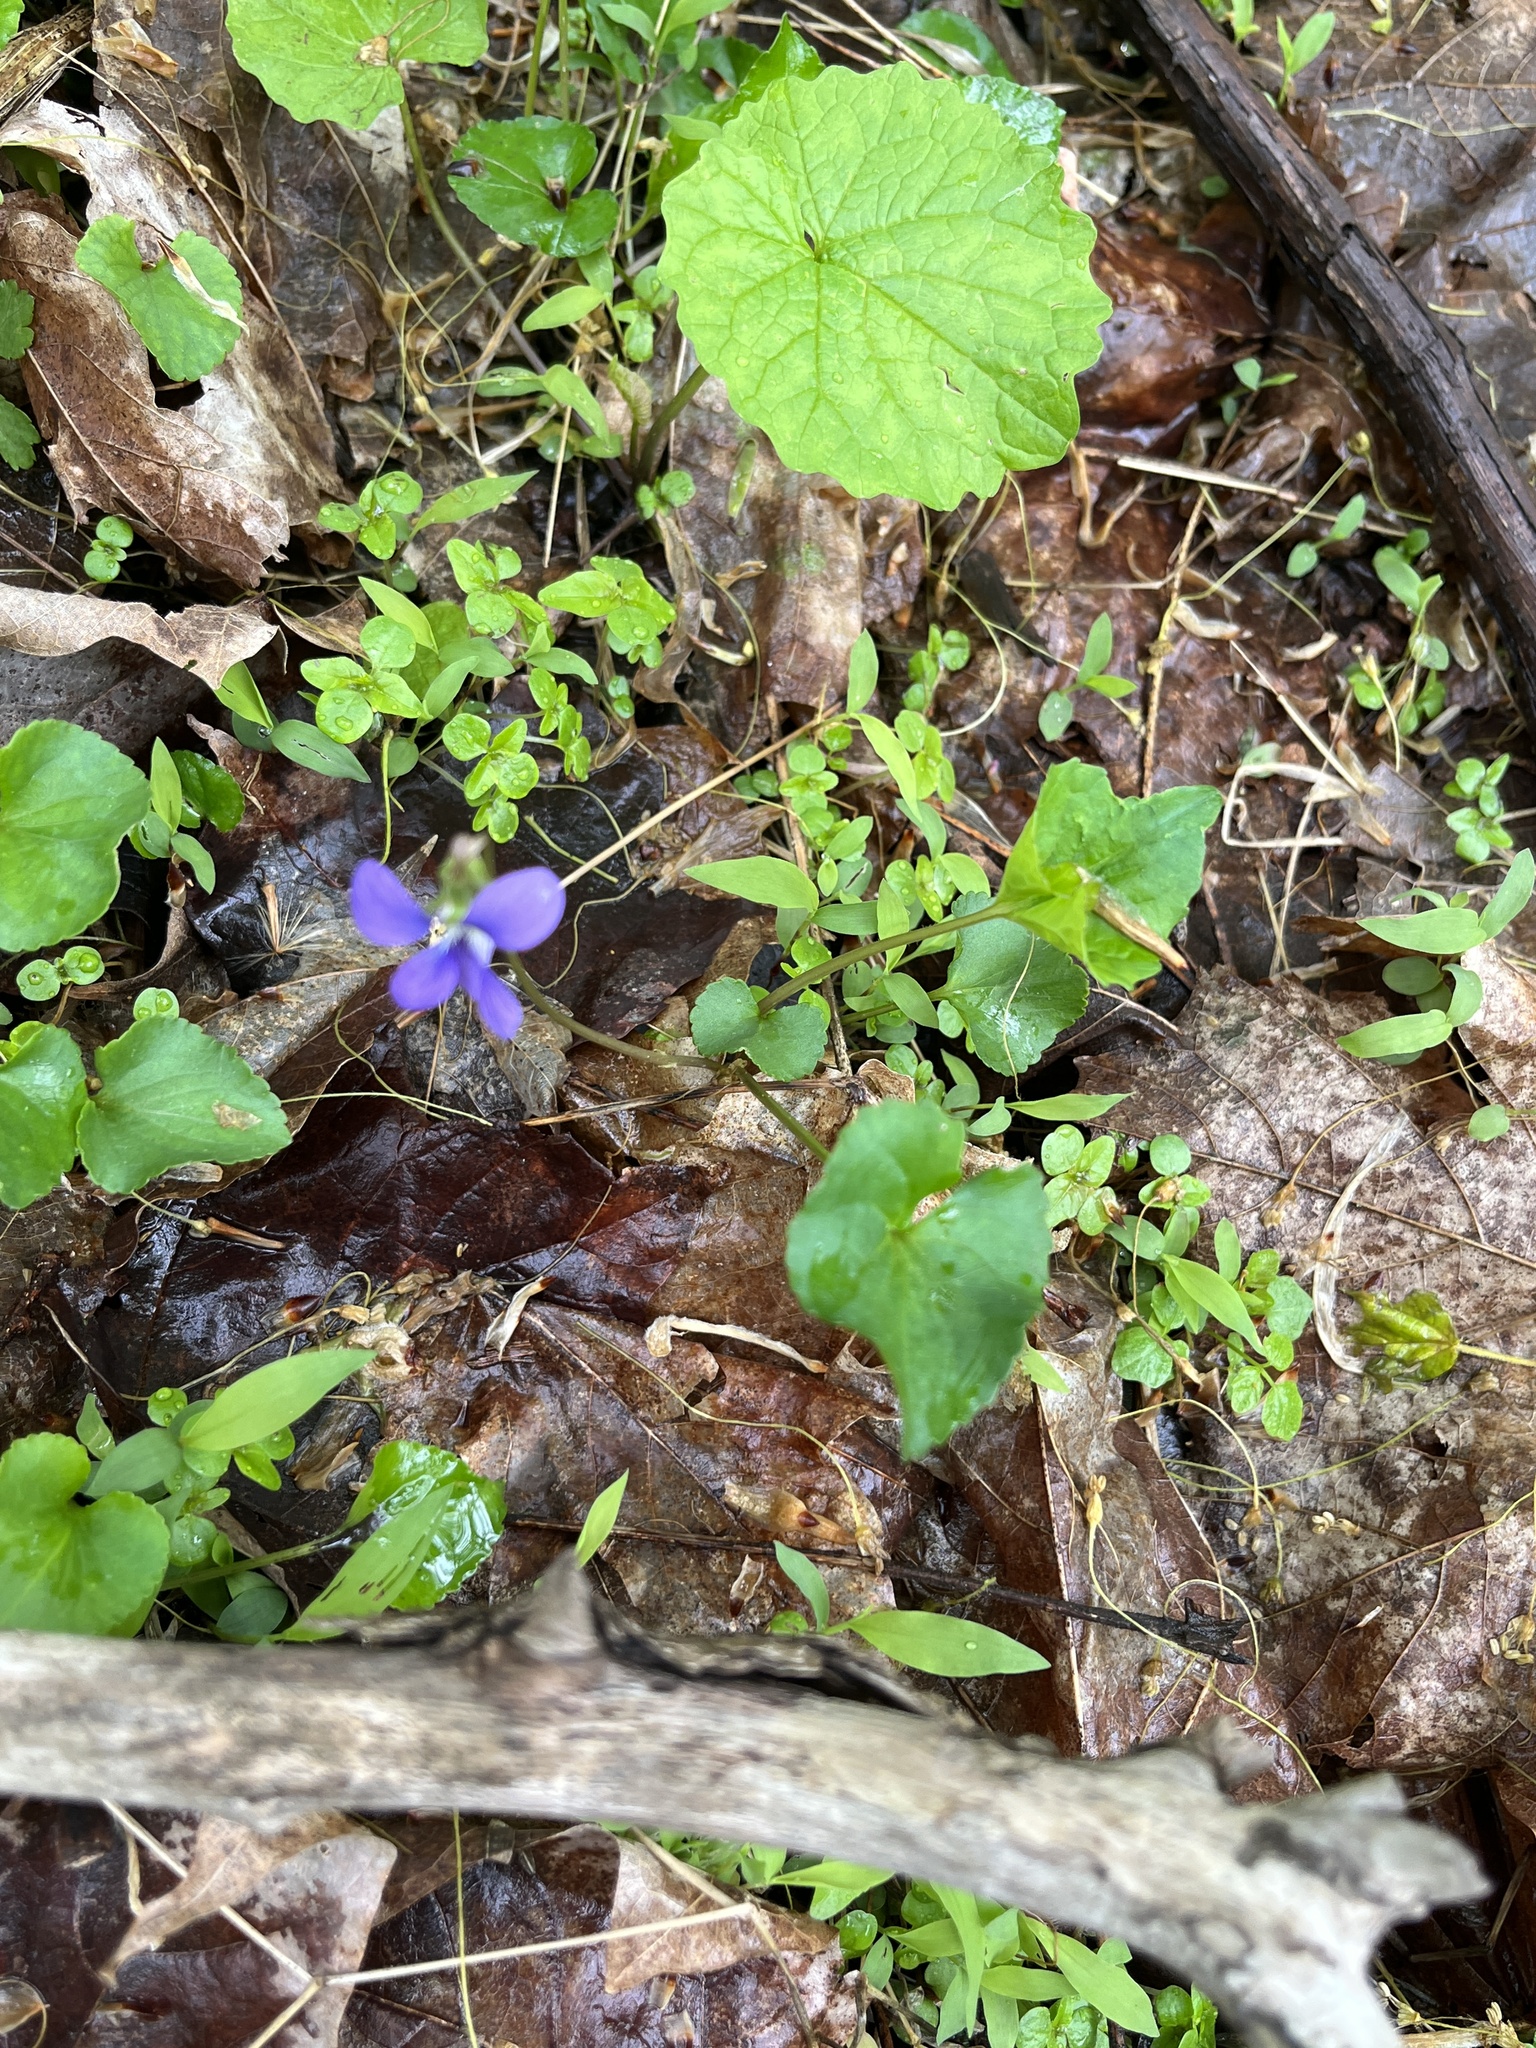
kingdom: Plantae
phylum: Tracheophyta
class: Magnoliopsida
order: Malpighiales
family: Violaceae
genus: Viola
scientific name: Viola sororia
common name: Dooryard violet
